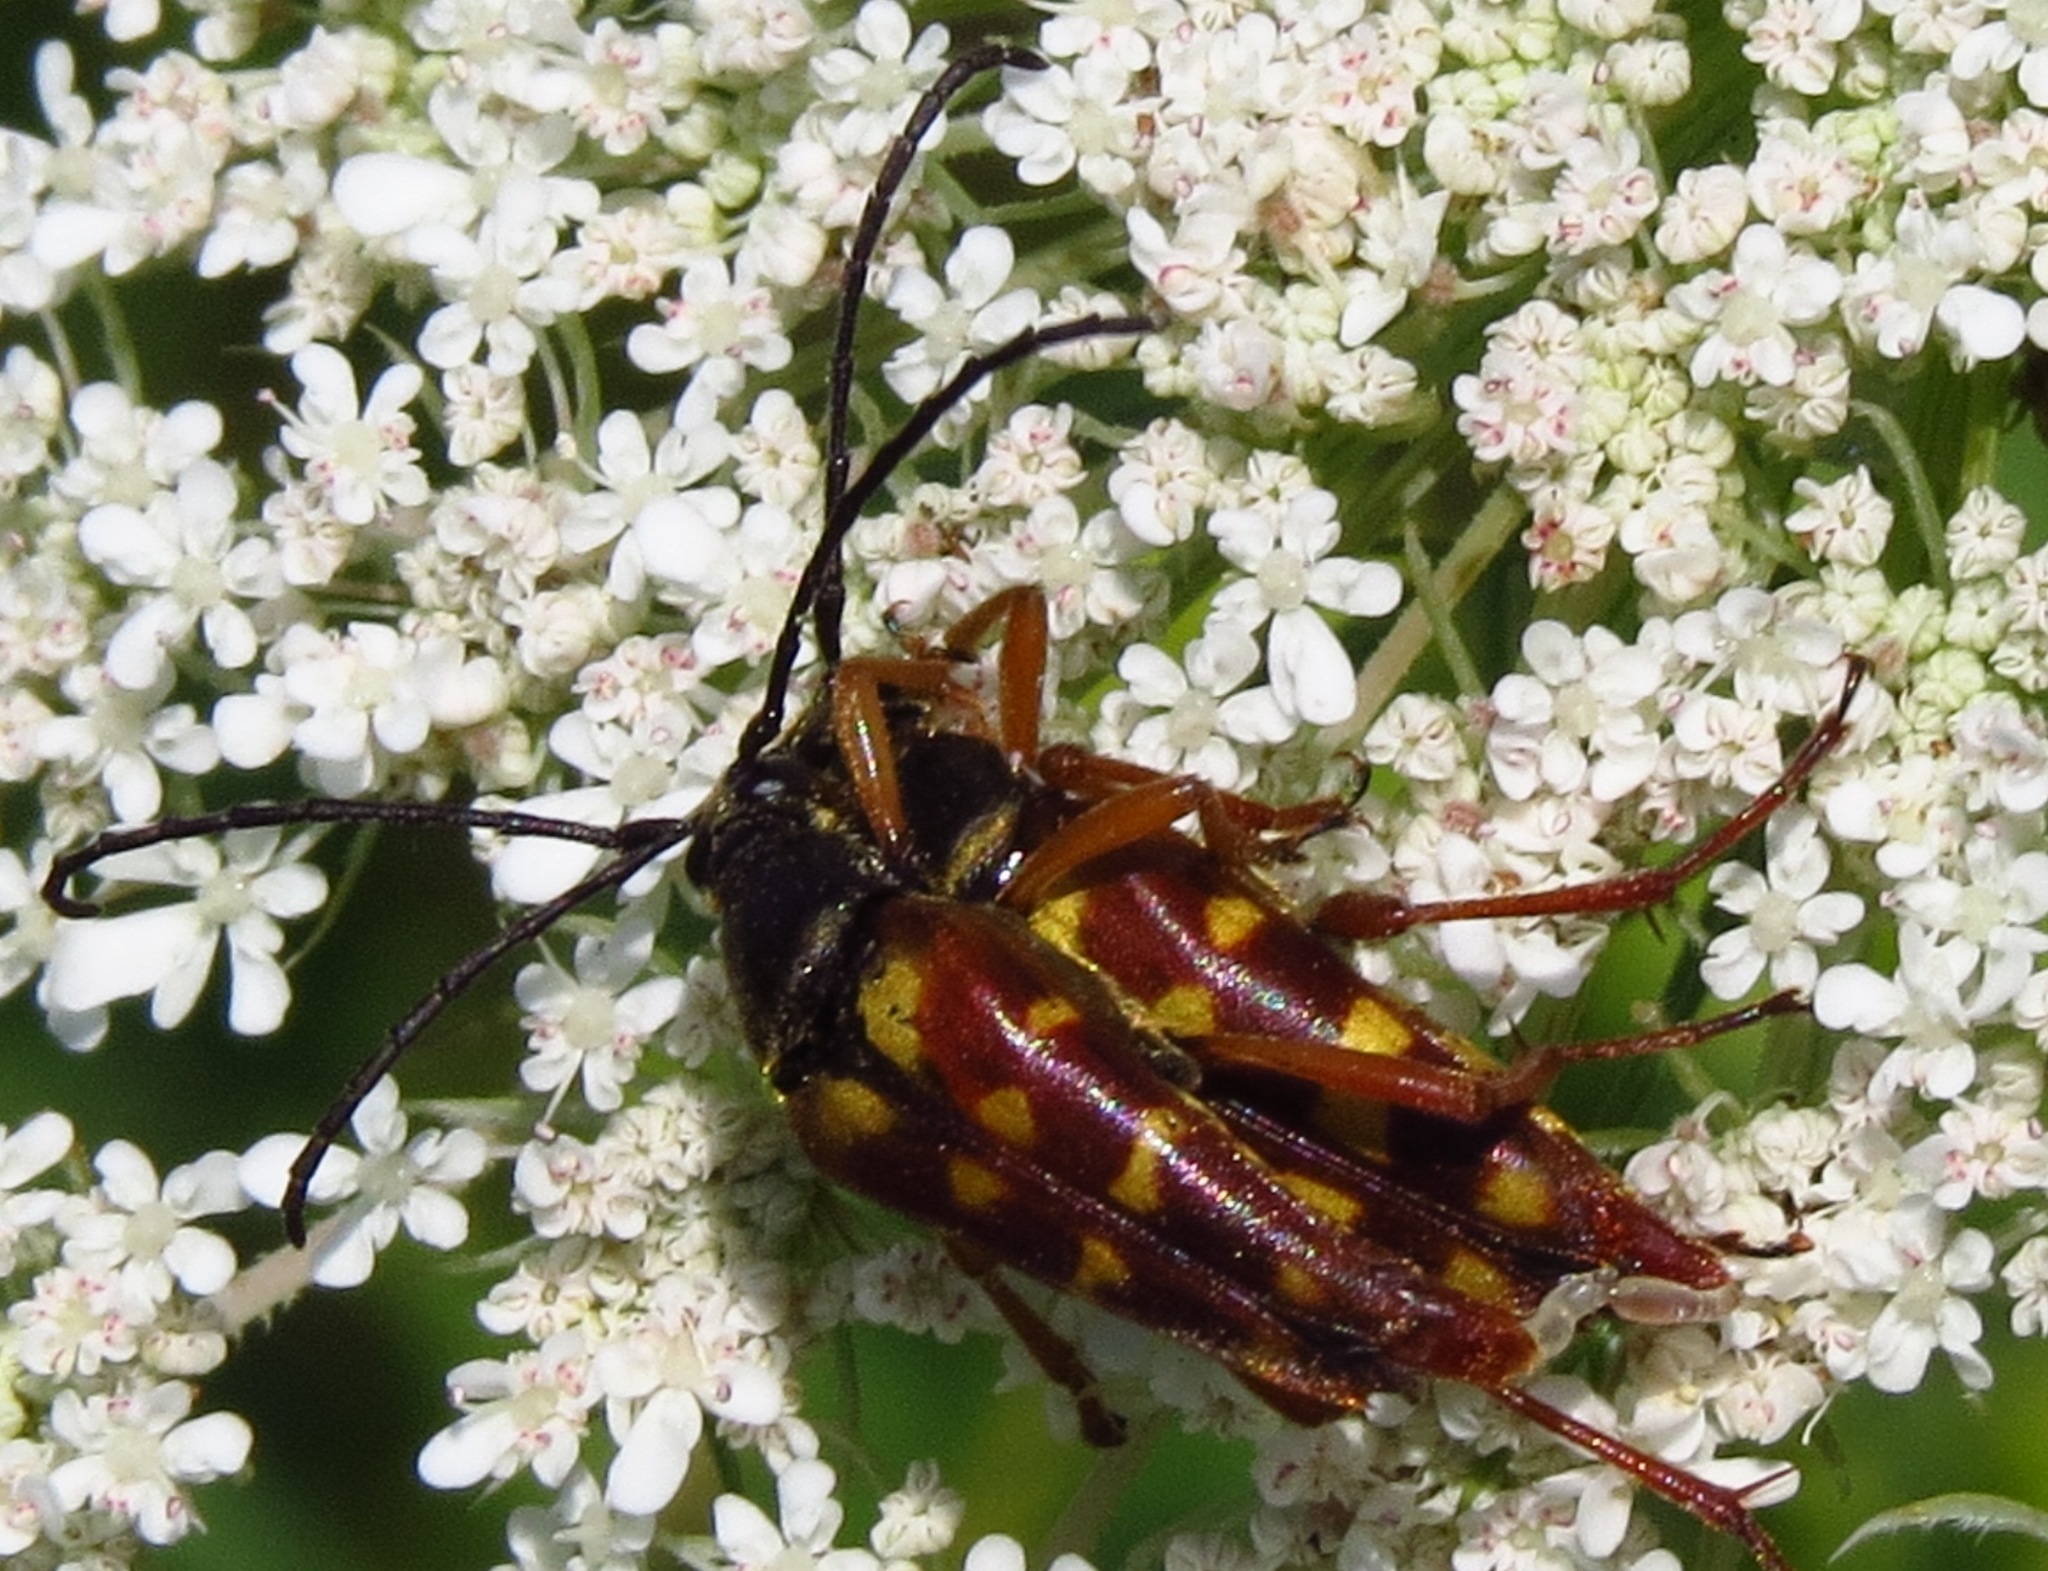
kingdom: Animalia
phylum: Arthropoda
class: Insecta
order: Coleoptera
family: Cerambycidae
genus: Typocerus
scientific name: Typocerus velutinus
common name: Banded longhorn beetle
